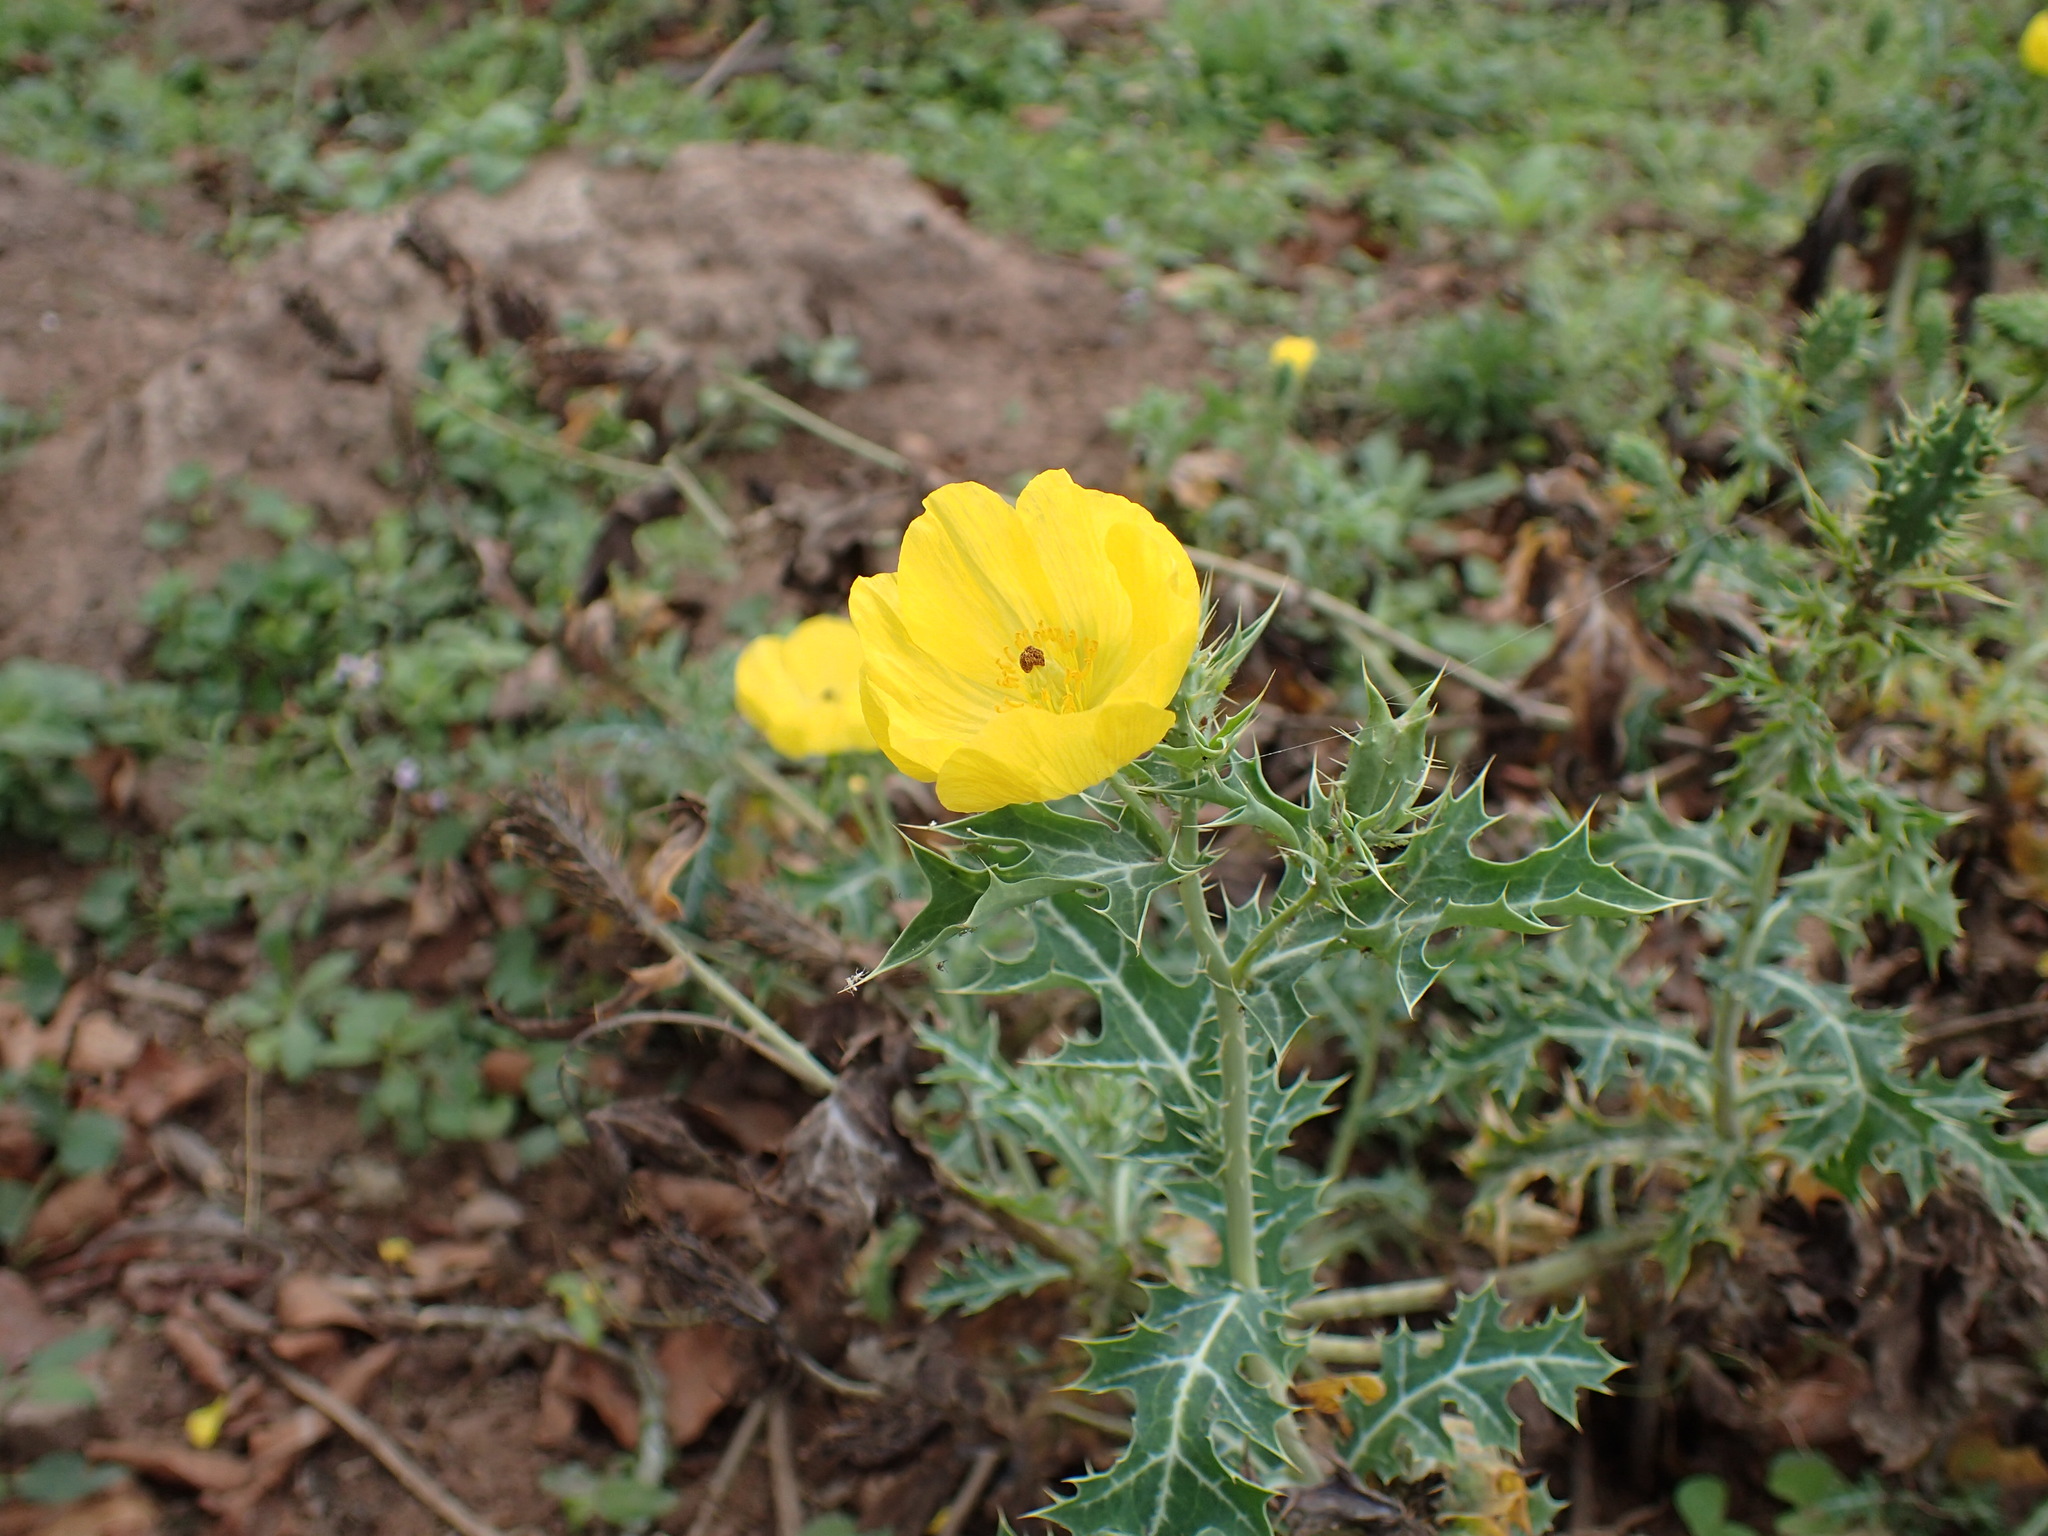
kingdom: Plantae
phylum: Tracheophyta
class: Magnoliopsida
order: Ranunculales
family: Papaveraceae
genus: Argemone
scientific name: Argemone mexicana
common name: Mexican poppy
